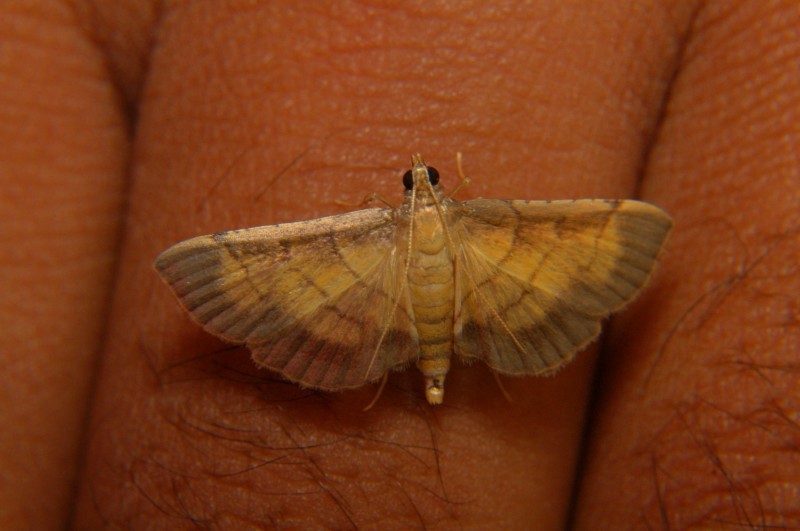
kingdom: Animalia
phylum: Arthropoda
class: Insecta
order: Lepidoptera
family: Crambidae
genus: Cnaphalocrocis
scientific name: Cnaphalocrocis poeyalis
